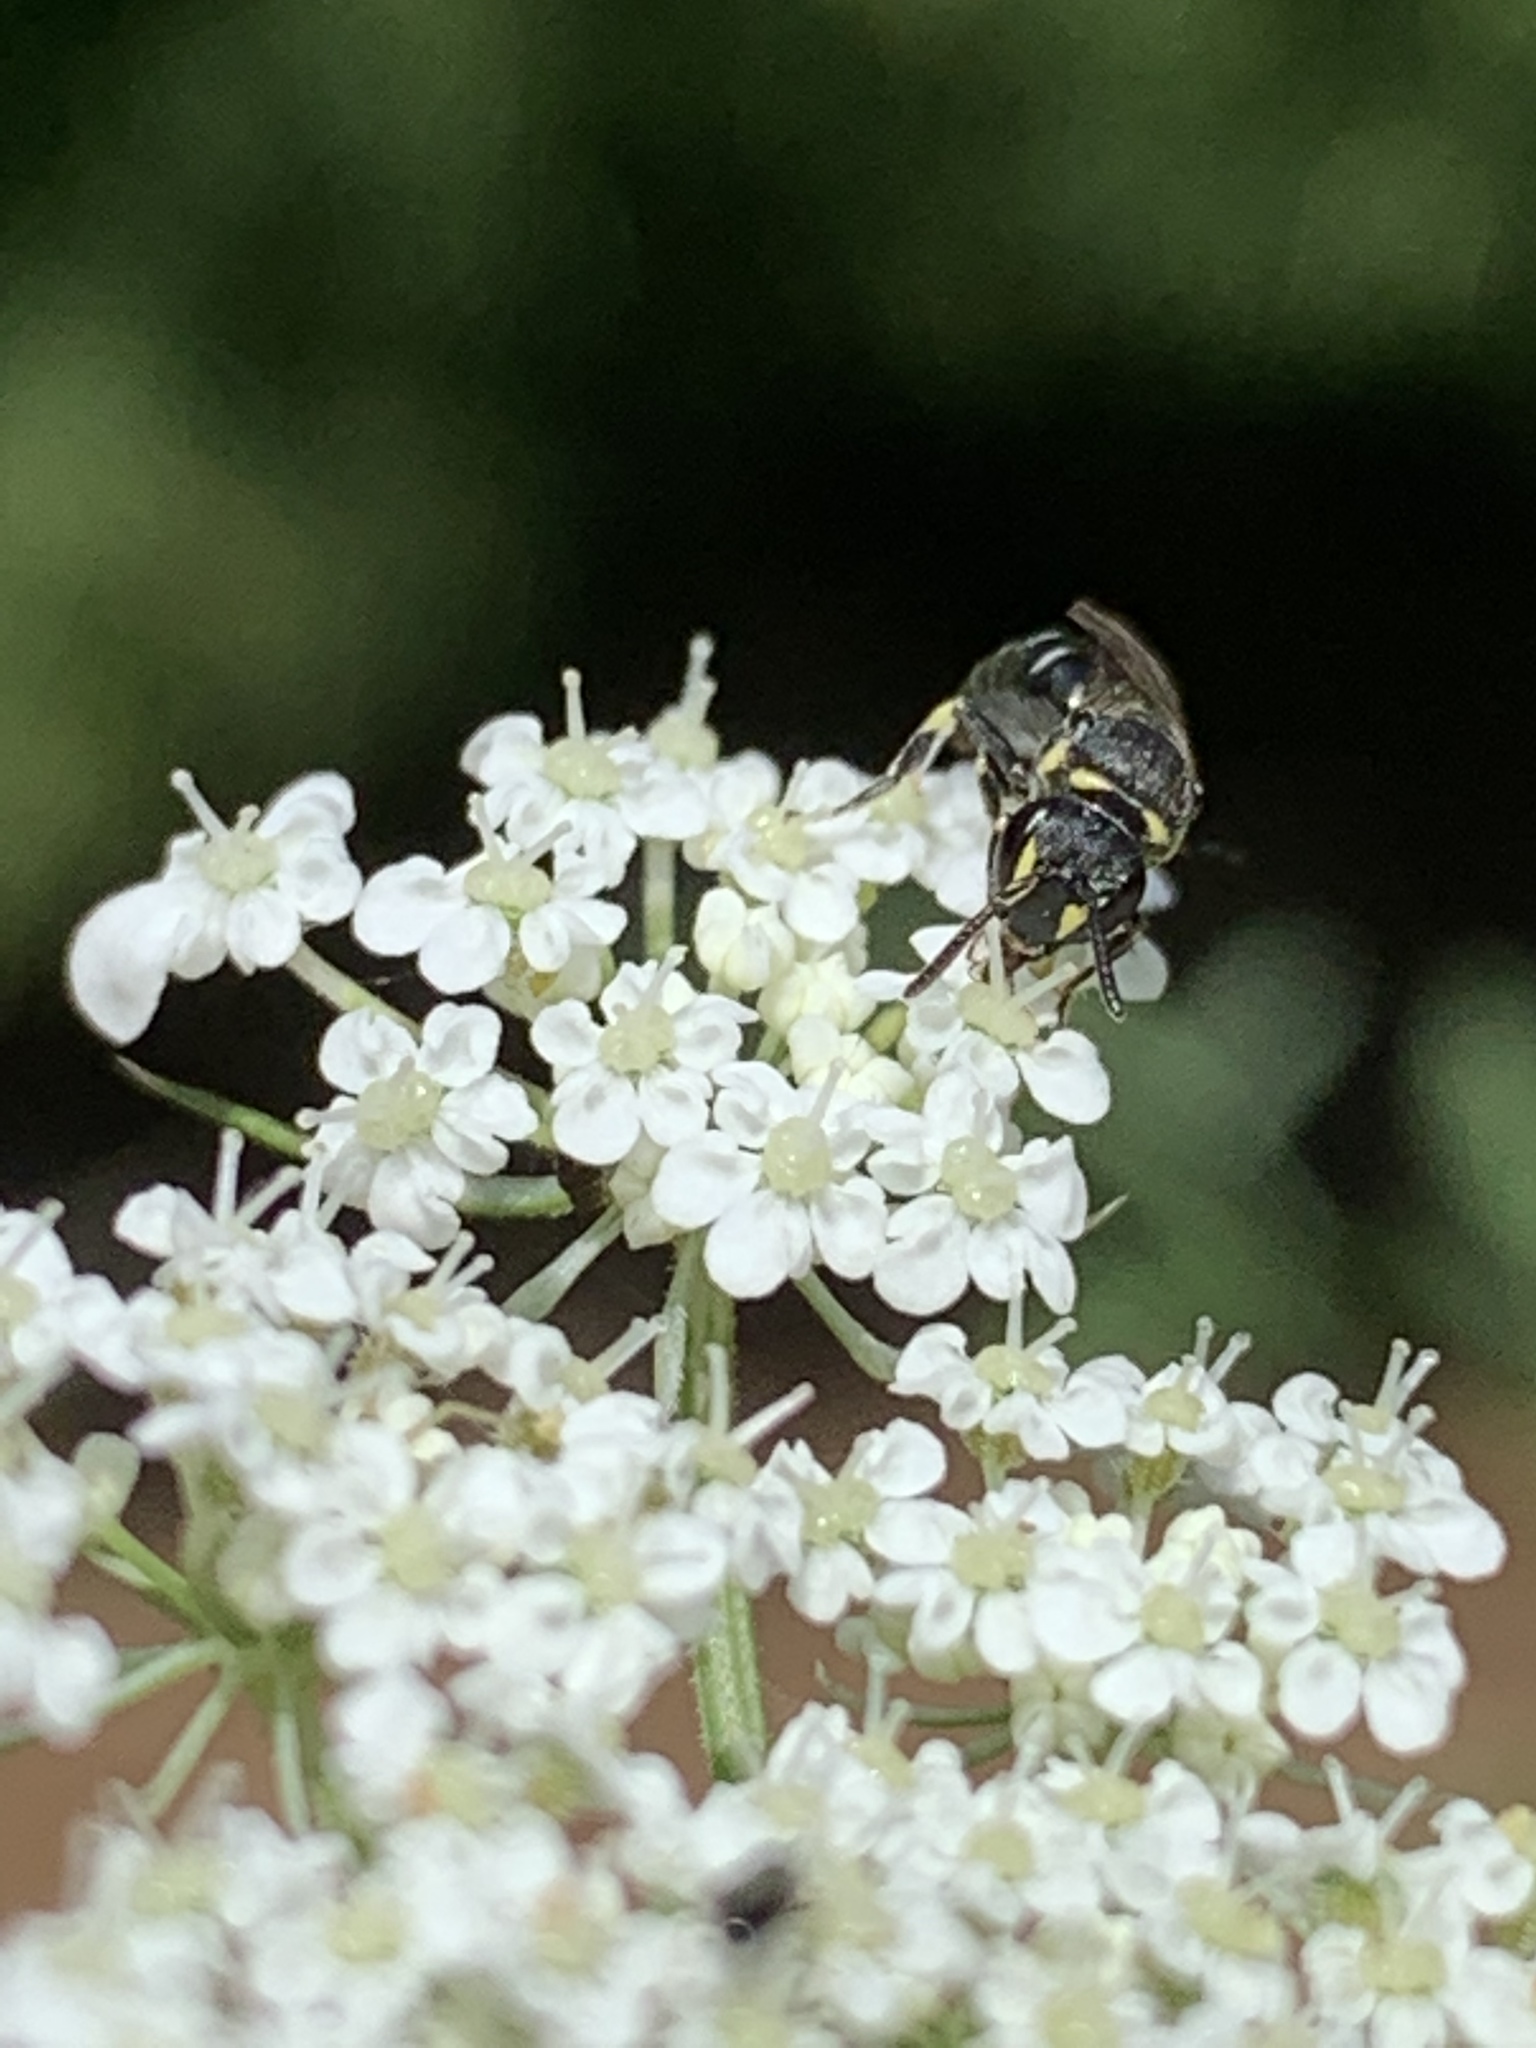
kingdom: Animalia
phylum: Arthropoda
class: Insecta
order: Hymenoptera
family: Colletidae
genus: Prosopis
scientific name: Prosopis
